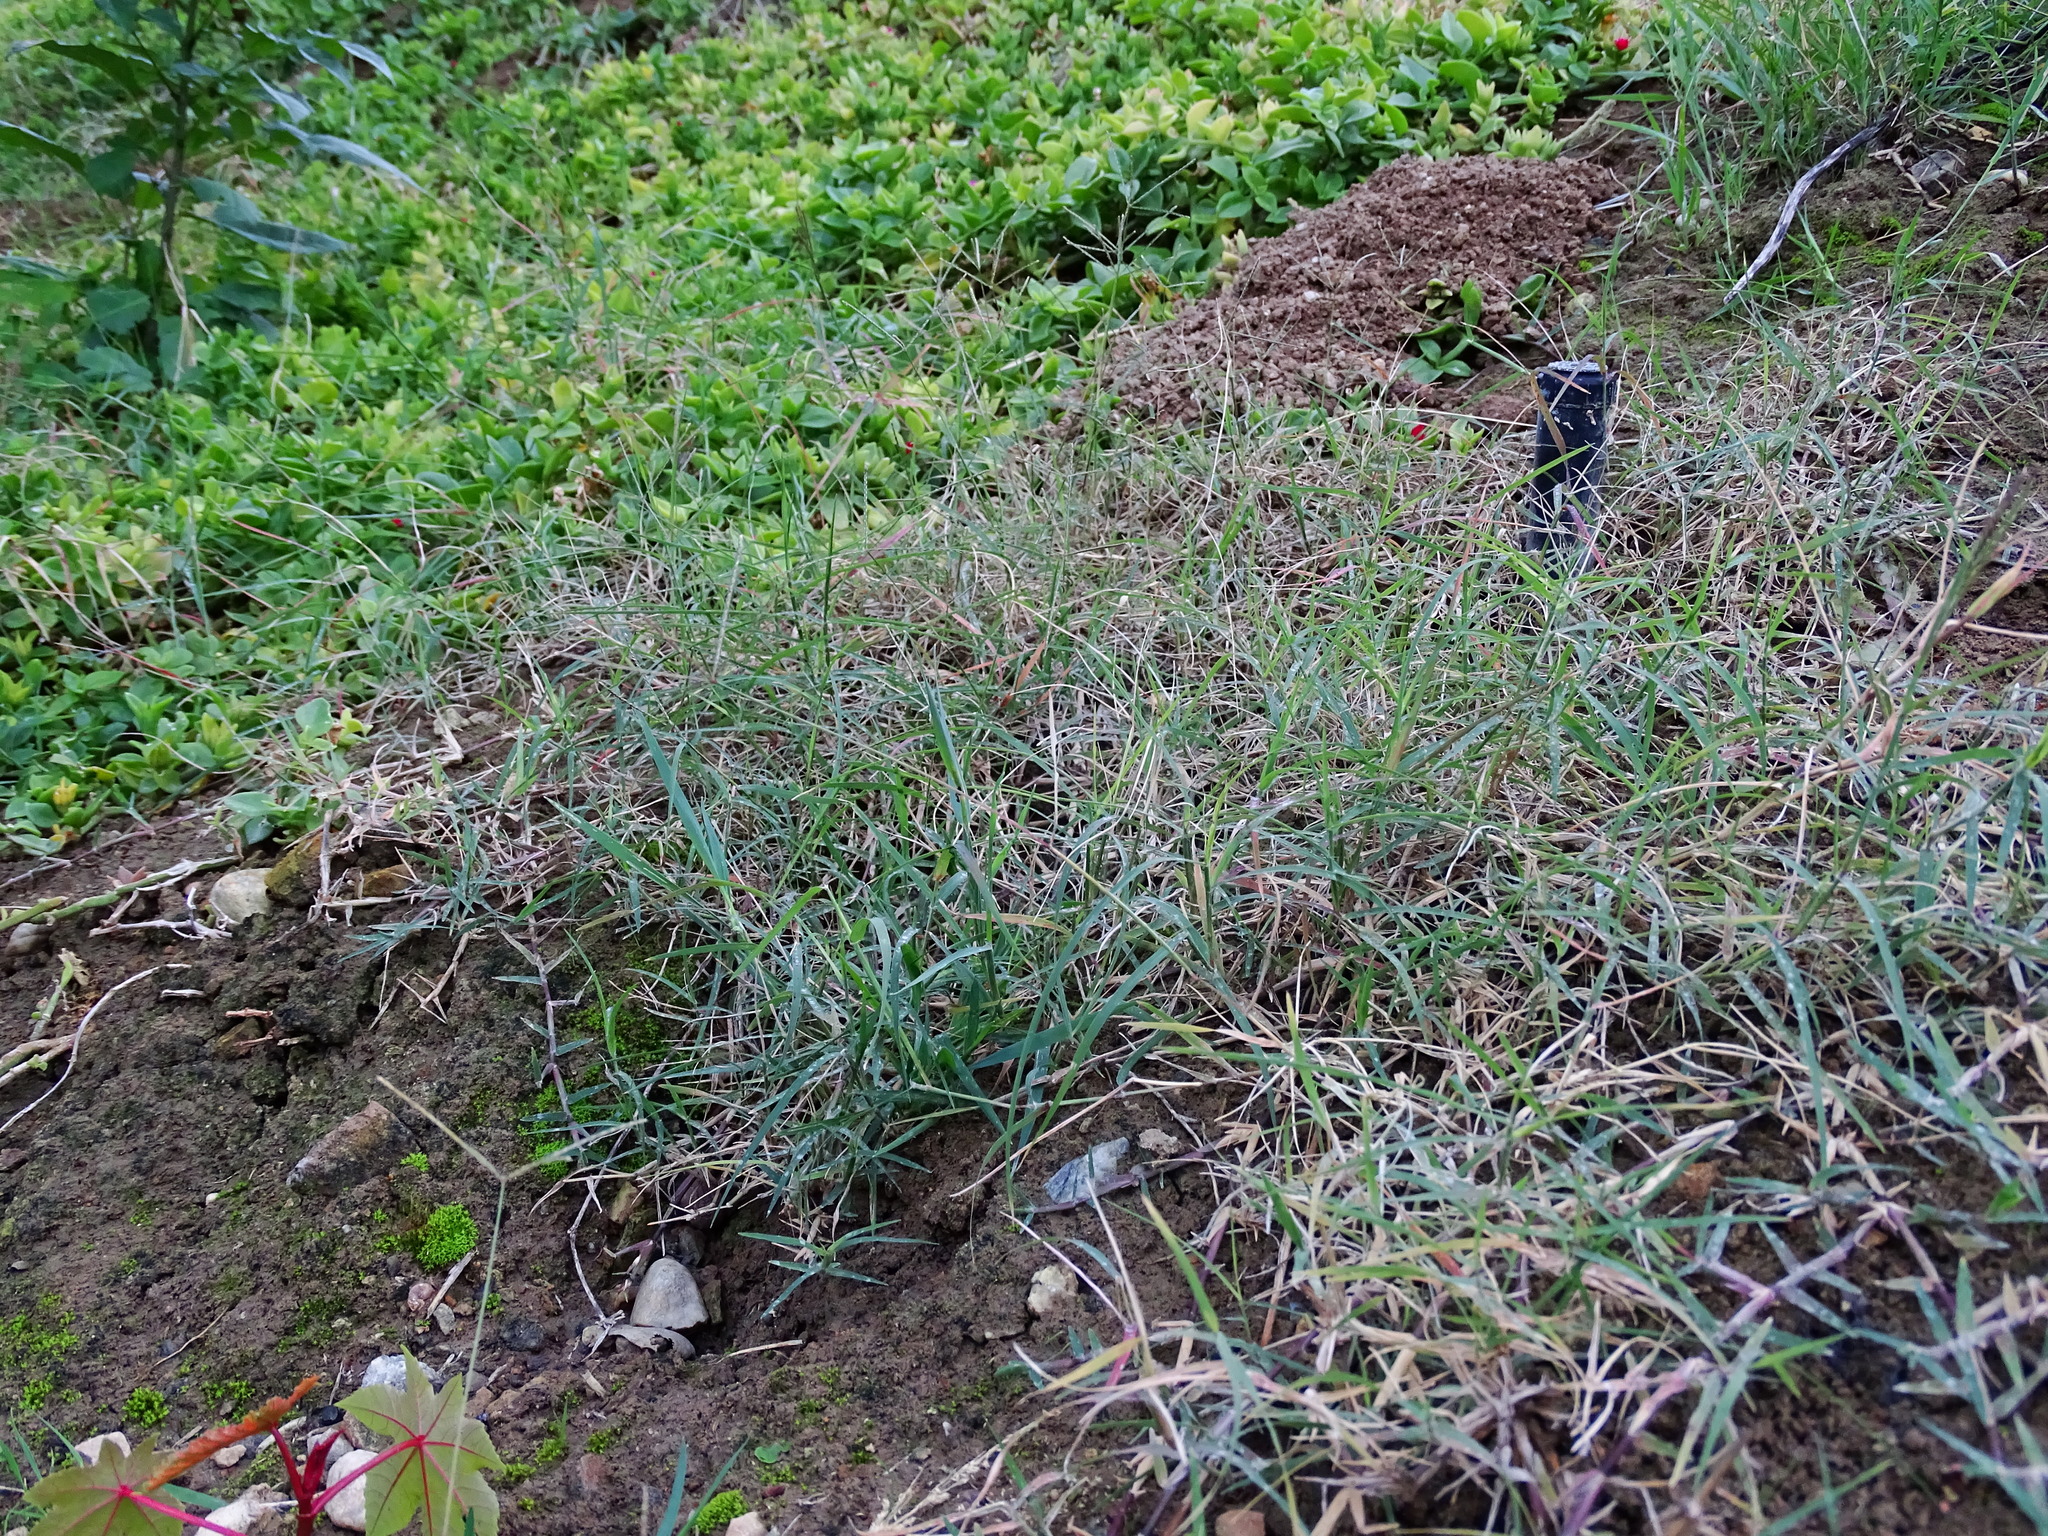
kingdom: Plantae
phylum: Tracheophyta
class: Liliopsida
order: Poales
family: Poaceae
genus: Cynodon
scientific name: Cynodon dactylon
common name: Bermuda grass
